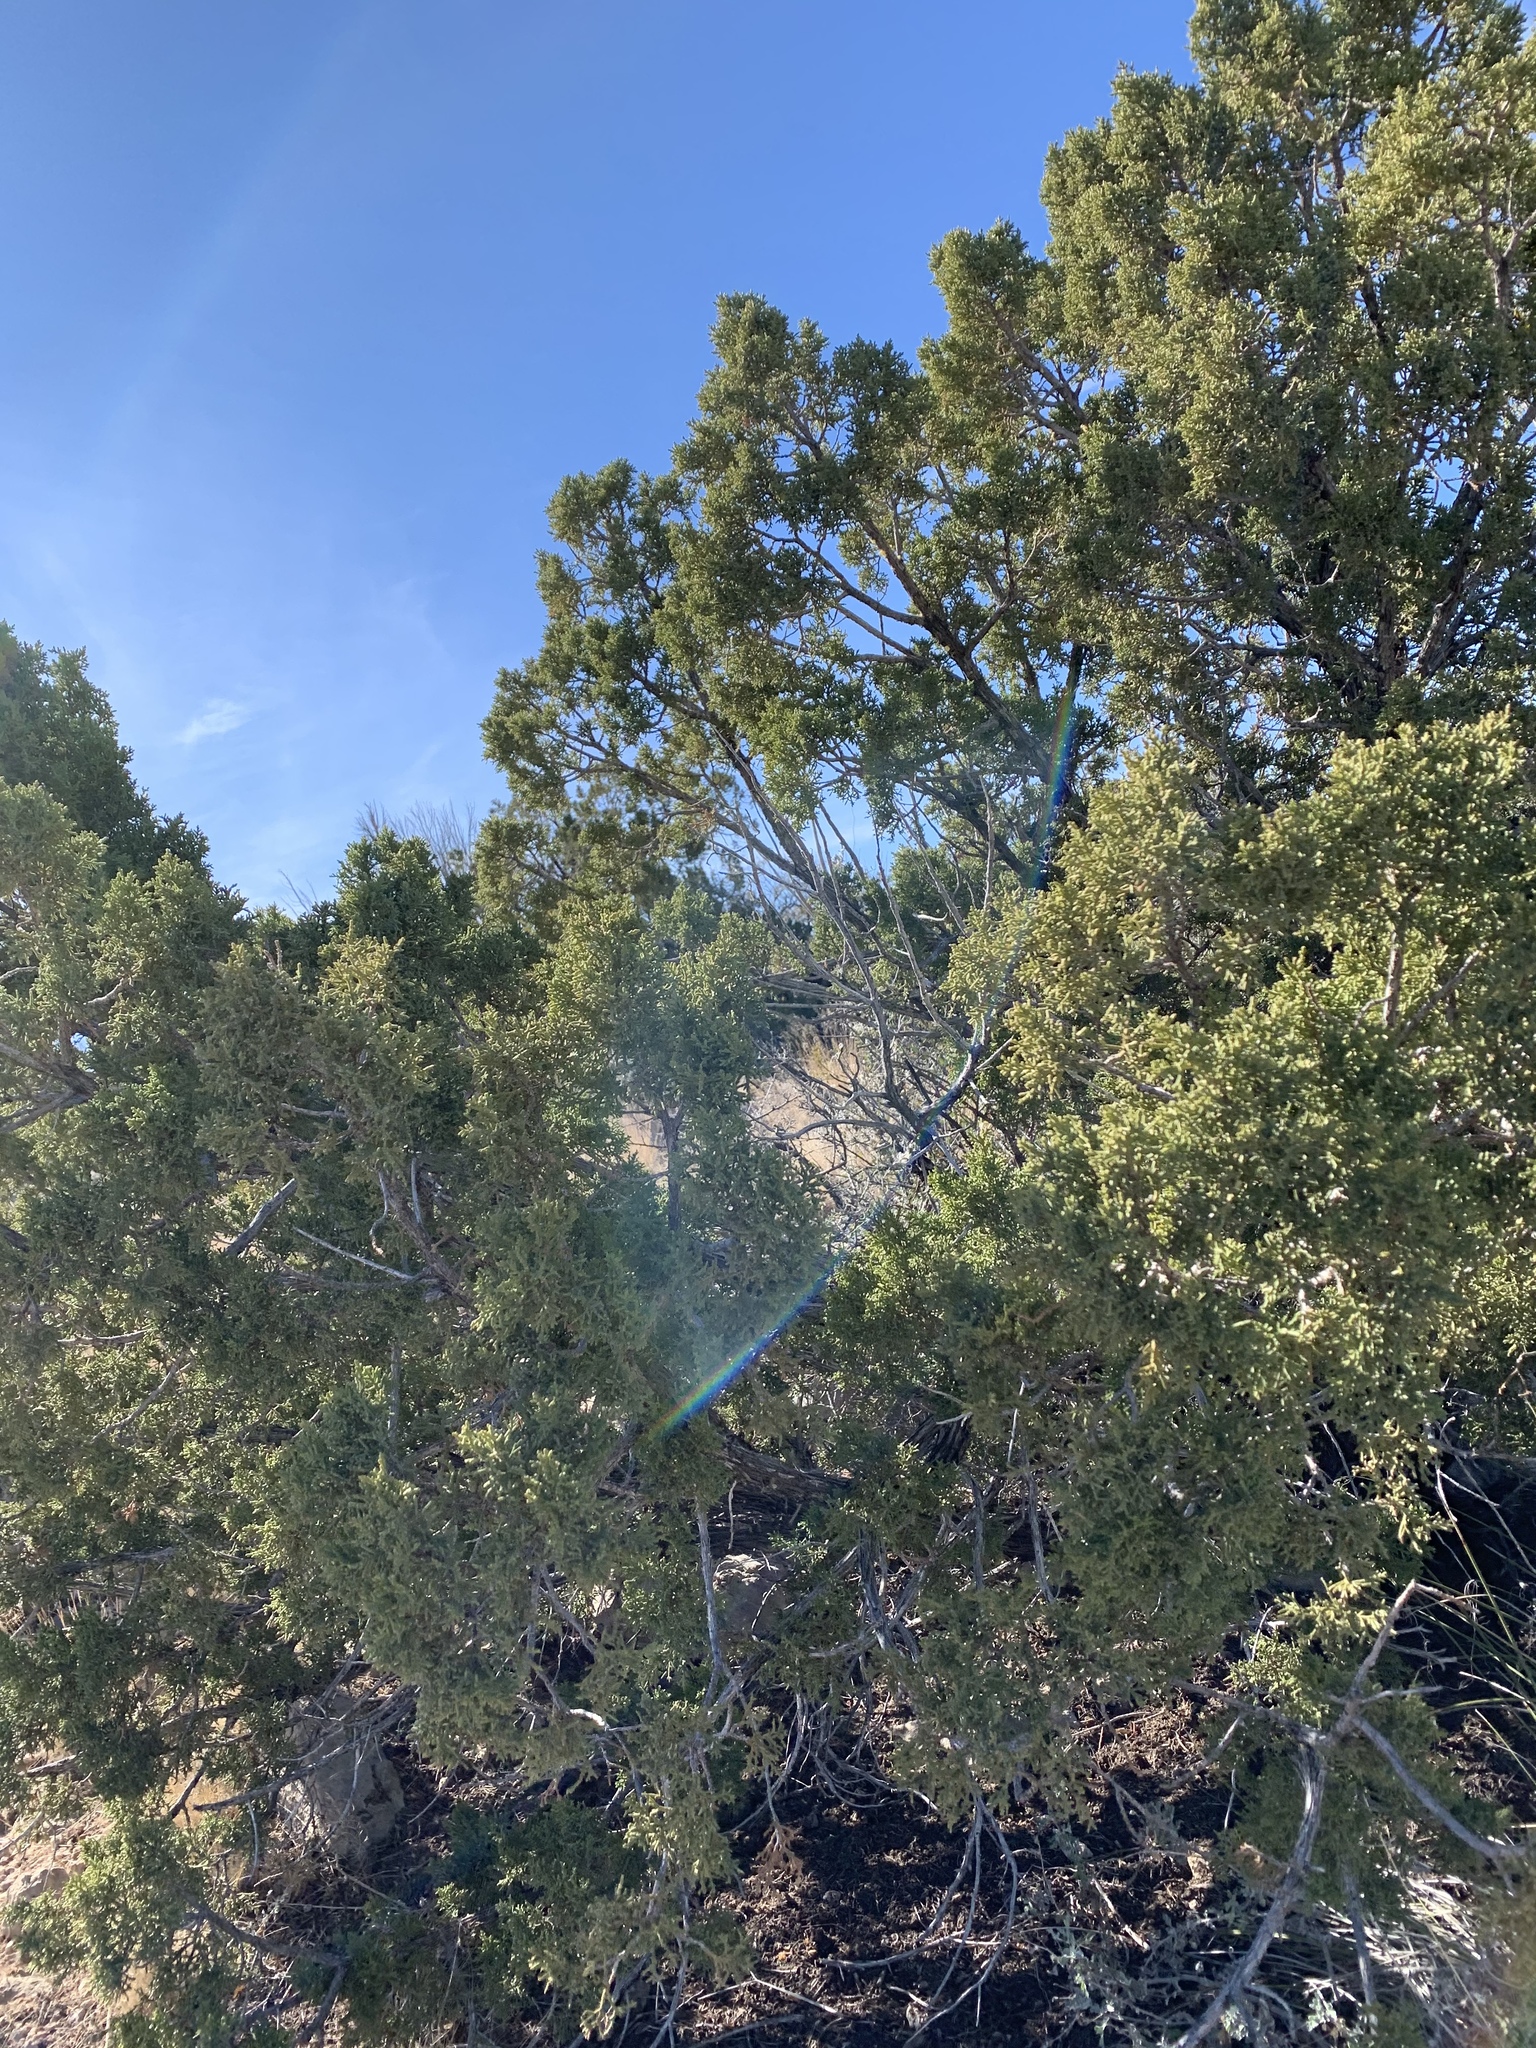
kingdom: Plantae
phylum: Tracheophyta
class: Pinopsida
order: Pinales
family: Cupressaceae
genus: Juniperus
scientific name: Juniperus monosperma
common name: One-seed juniper
